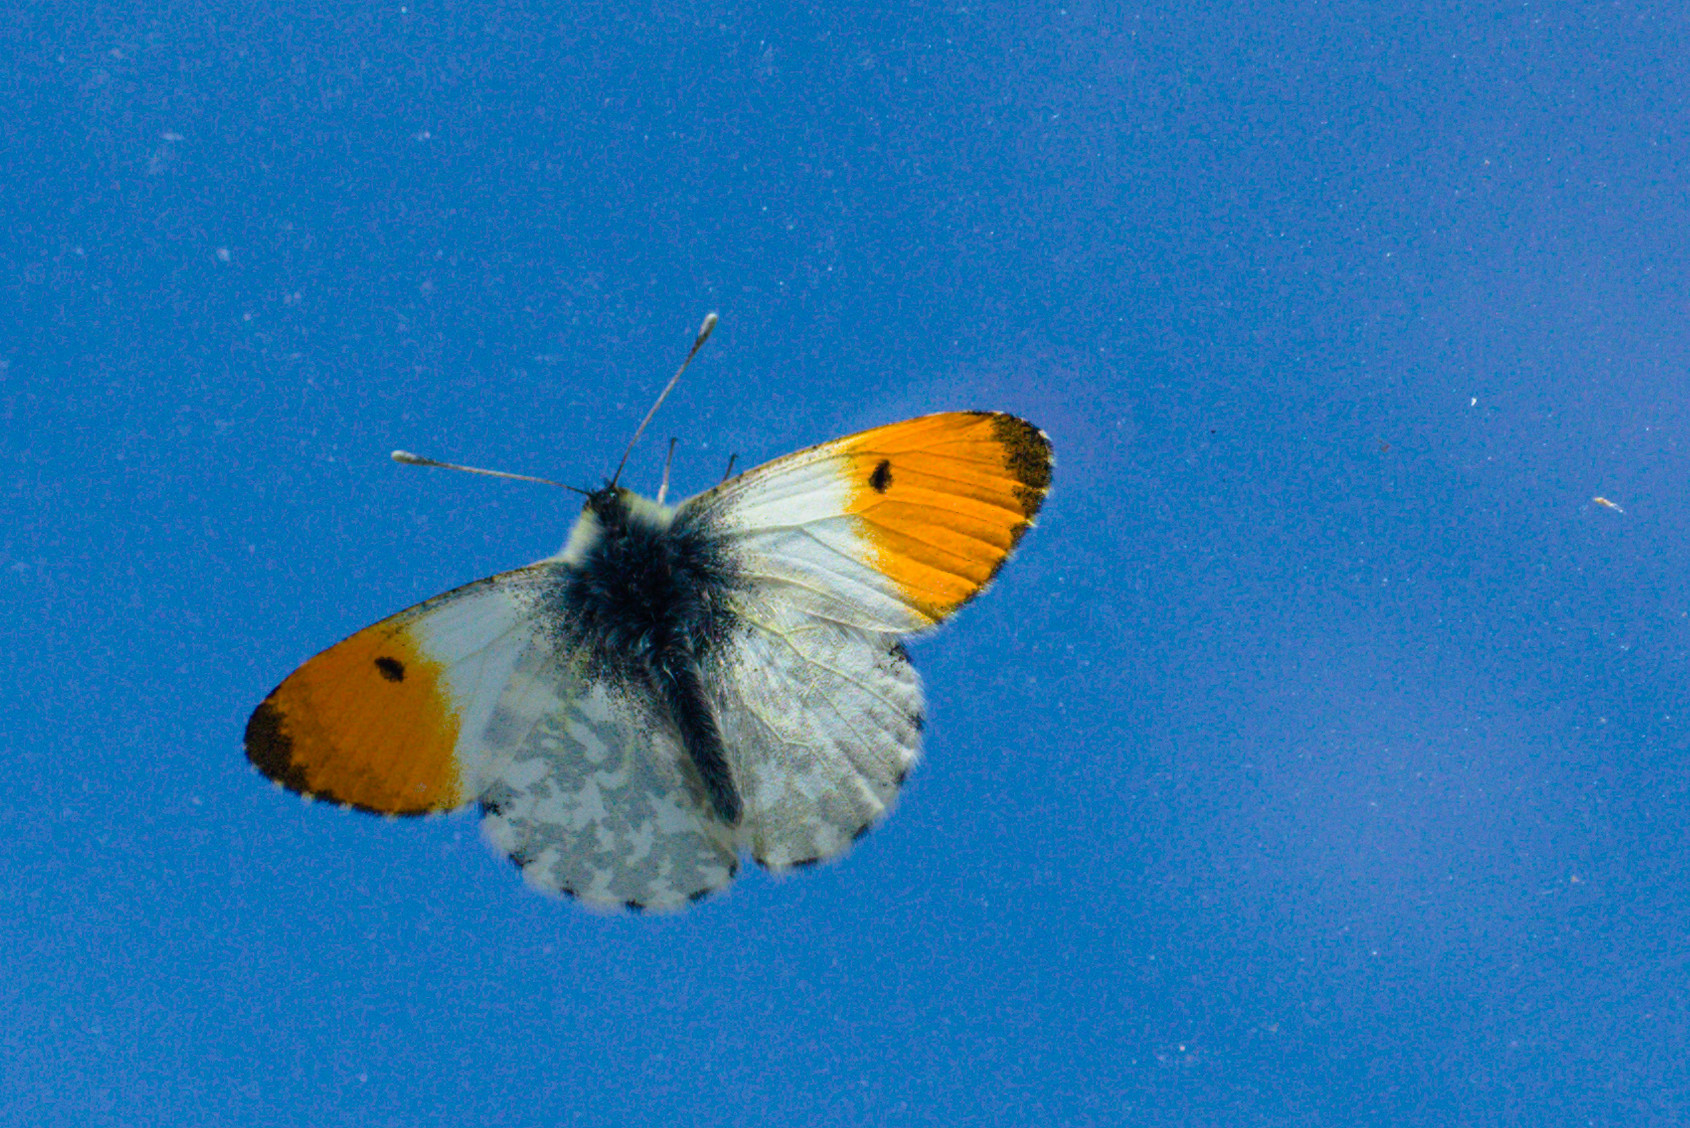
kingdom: Animalia
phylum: Arthropoda
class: Insecta
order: Lepidoptera
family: Pieridae
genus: Anthocharis
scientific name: Anthocharis cardamines
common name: Orange-tip
